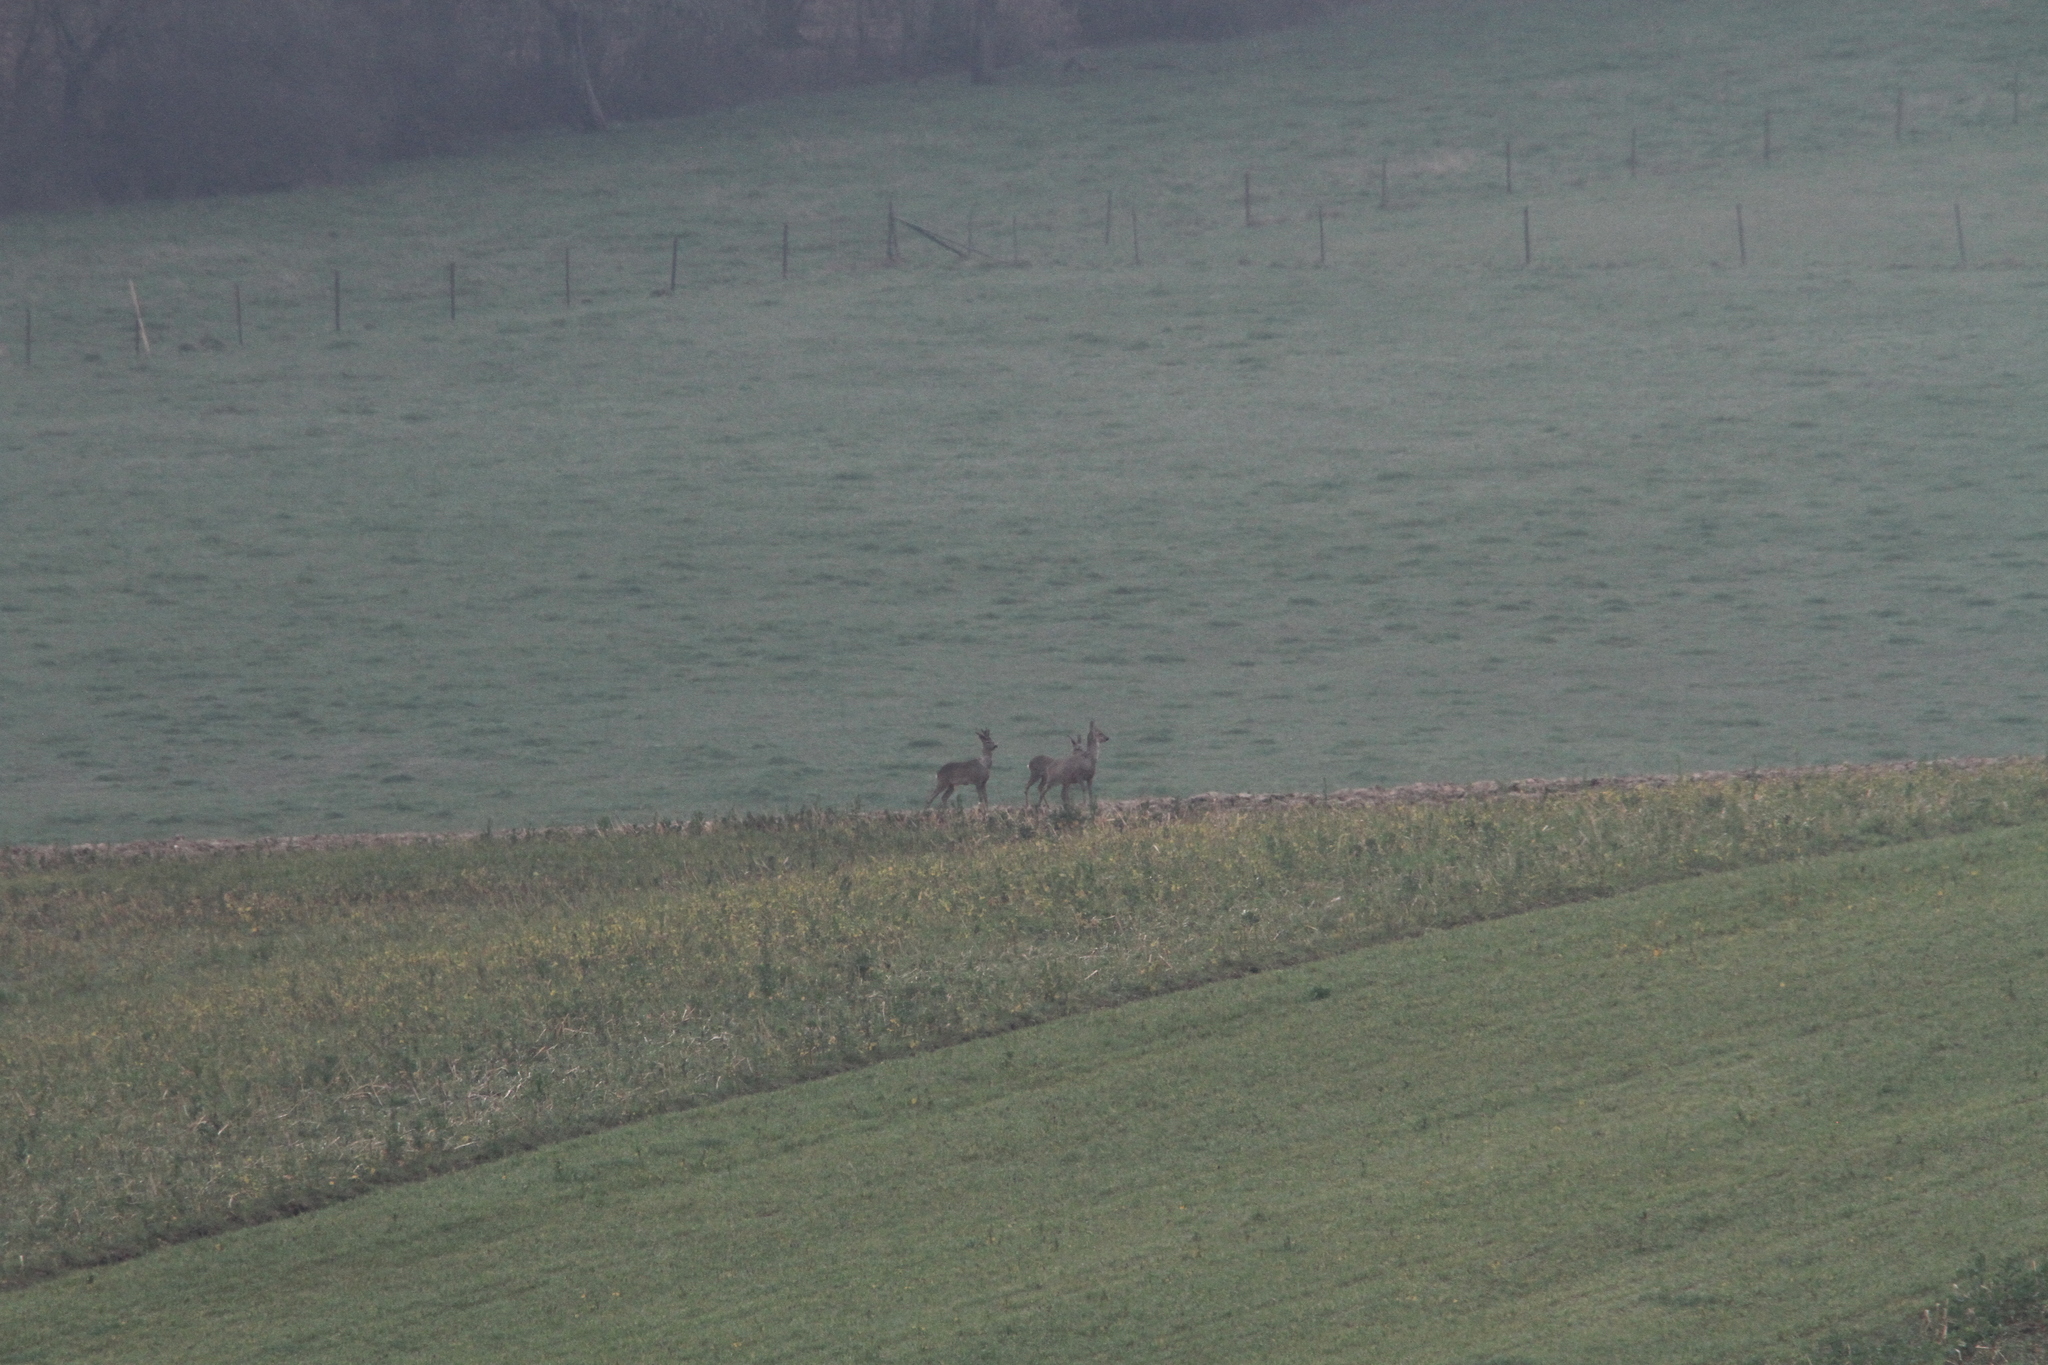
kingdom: Animalia
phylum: Chordata
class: Mammalia
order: Artiodactyla
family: Cervidae
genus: Capreolus
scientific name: Capreolus capreolus
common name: Western roe deer
